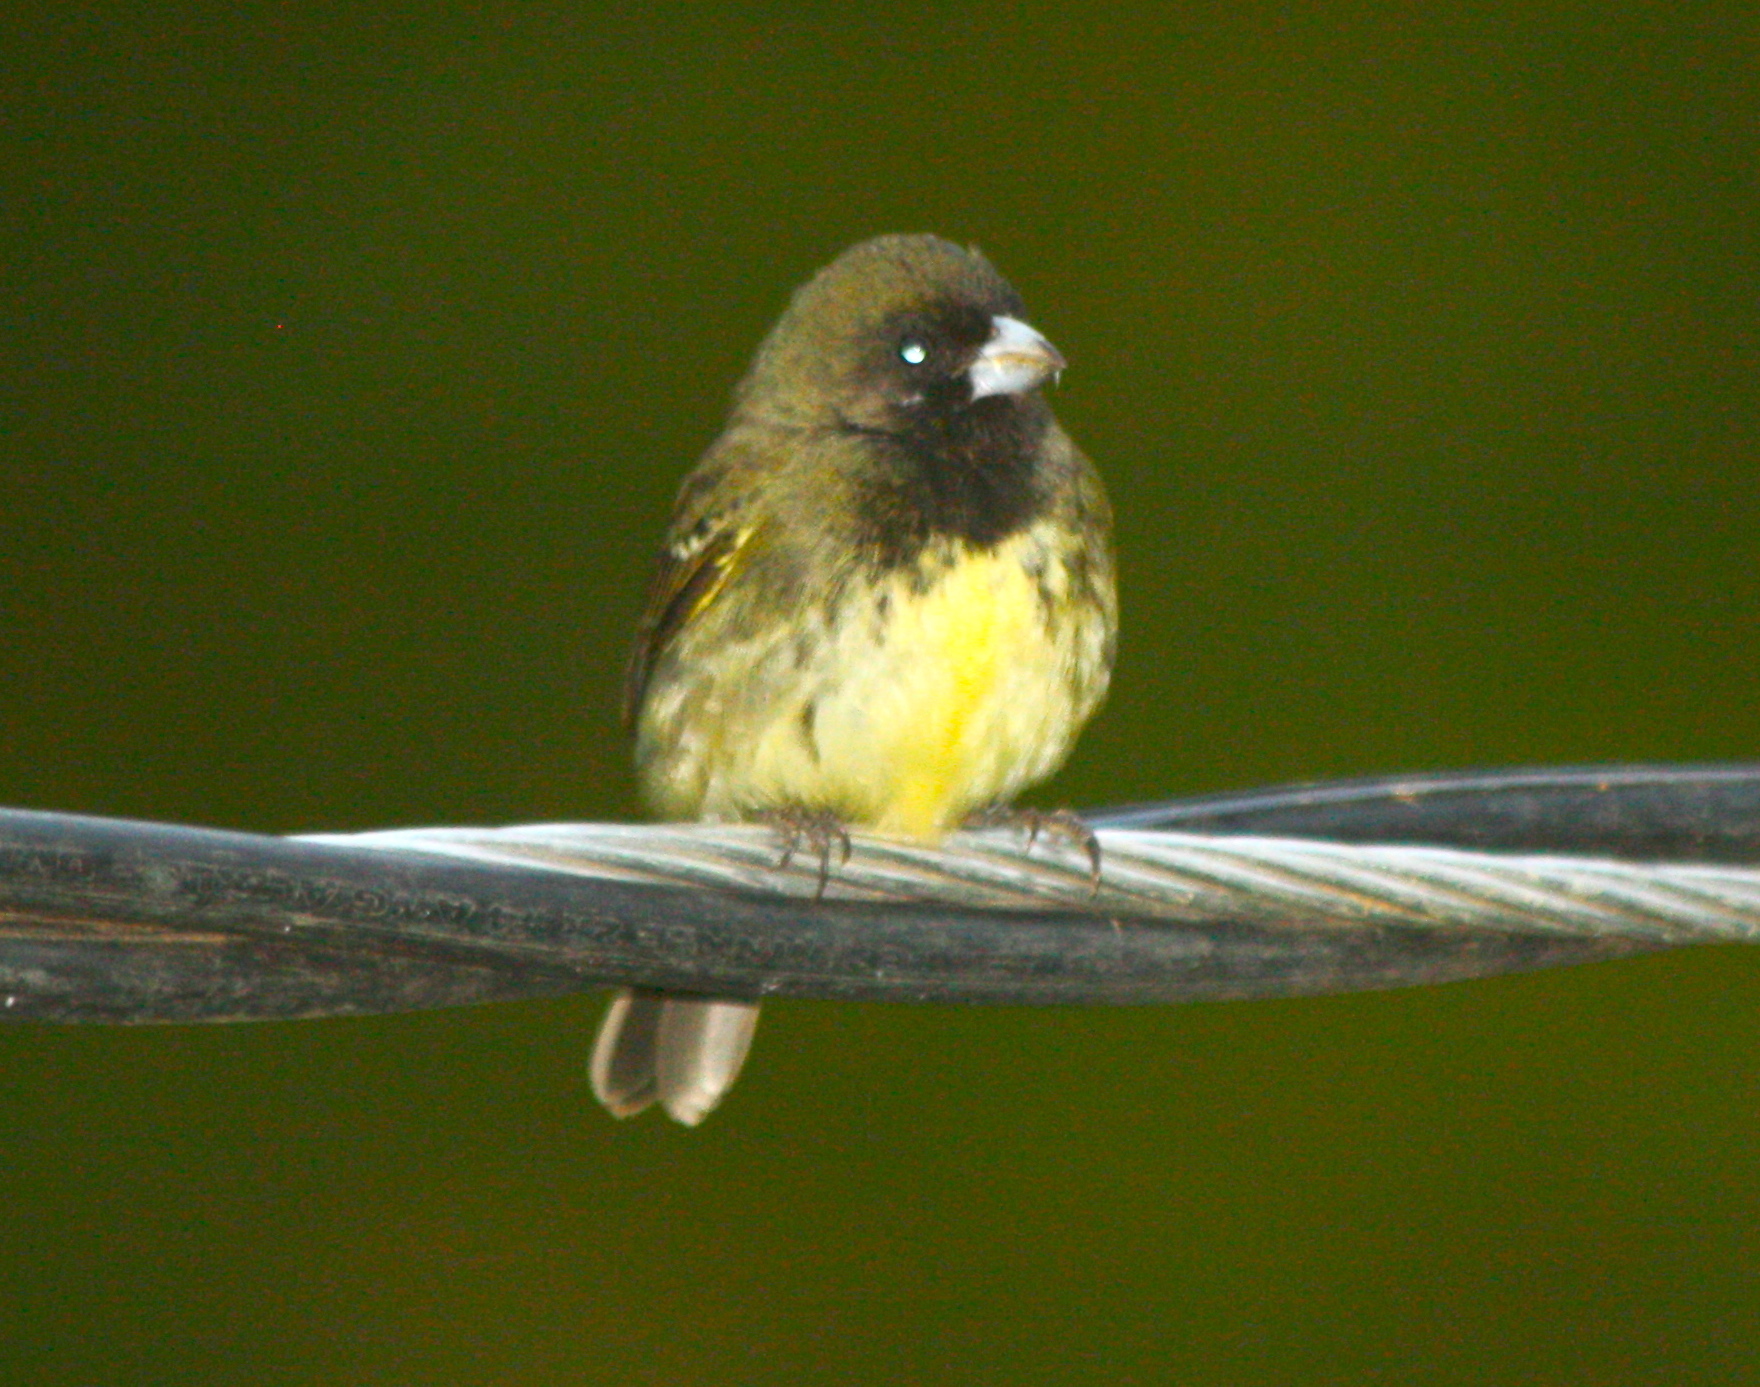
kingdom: Animalia
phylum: Chordata
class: Aves
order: Passeriformes
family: Thraupidae
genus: Sporophila
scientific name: Sporophila nigricollis
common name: Yellow-bellied seedeater
